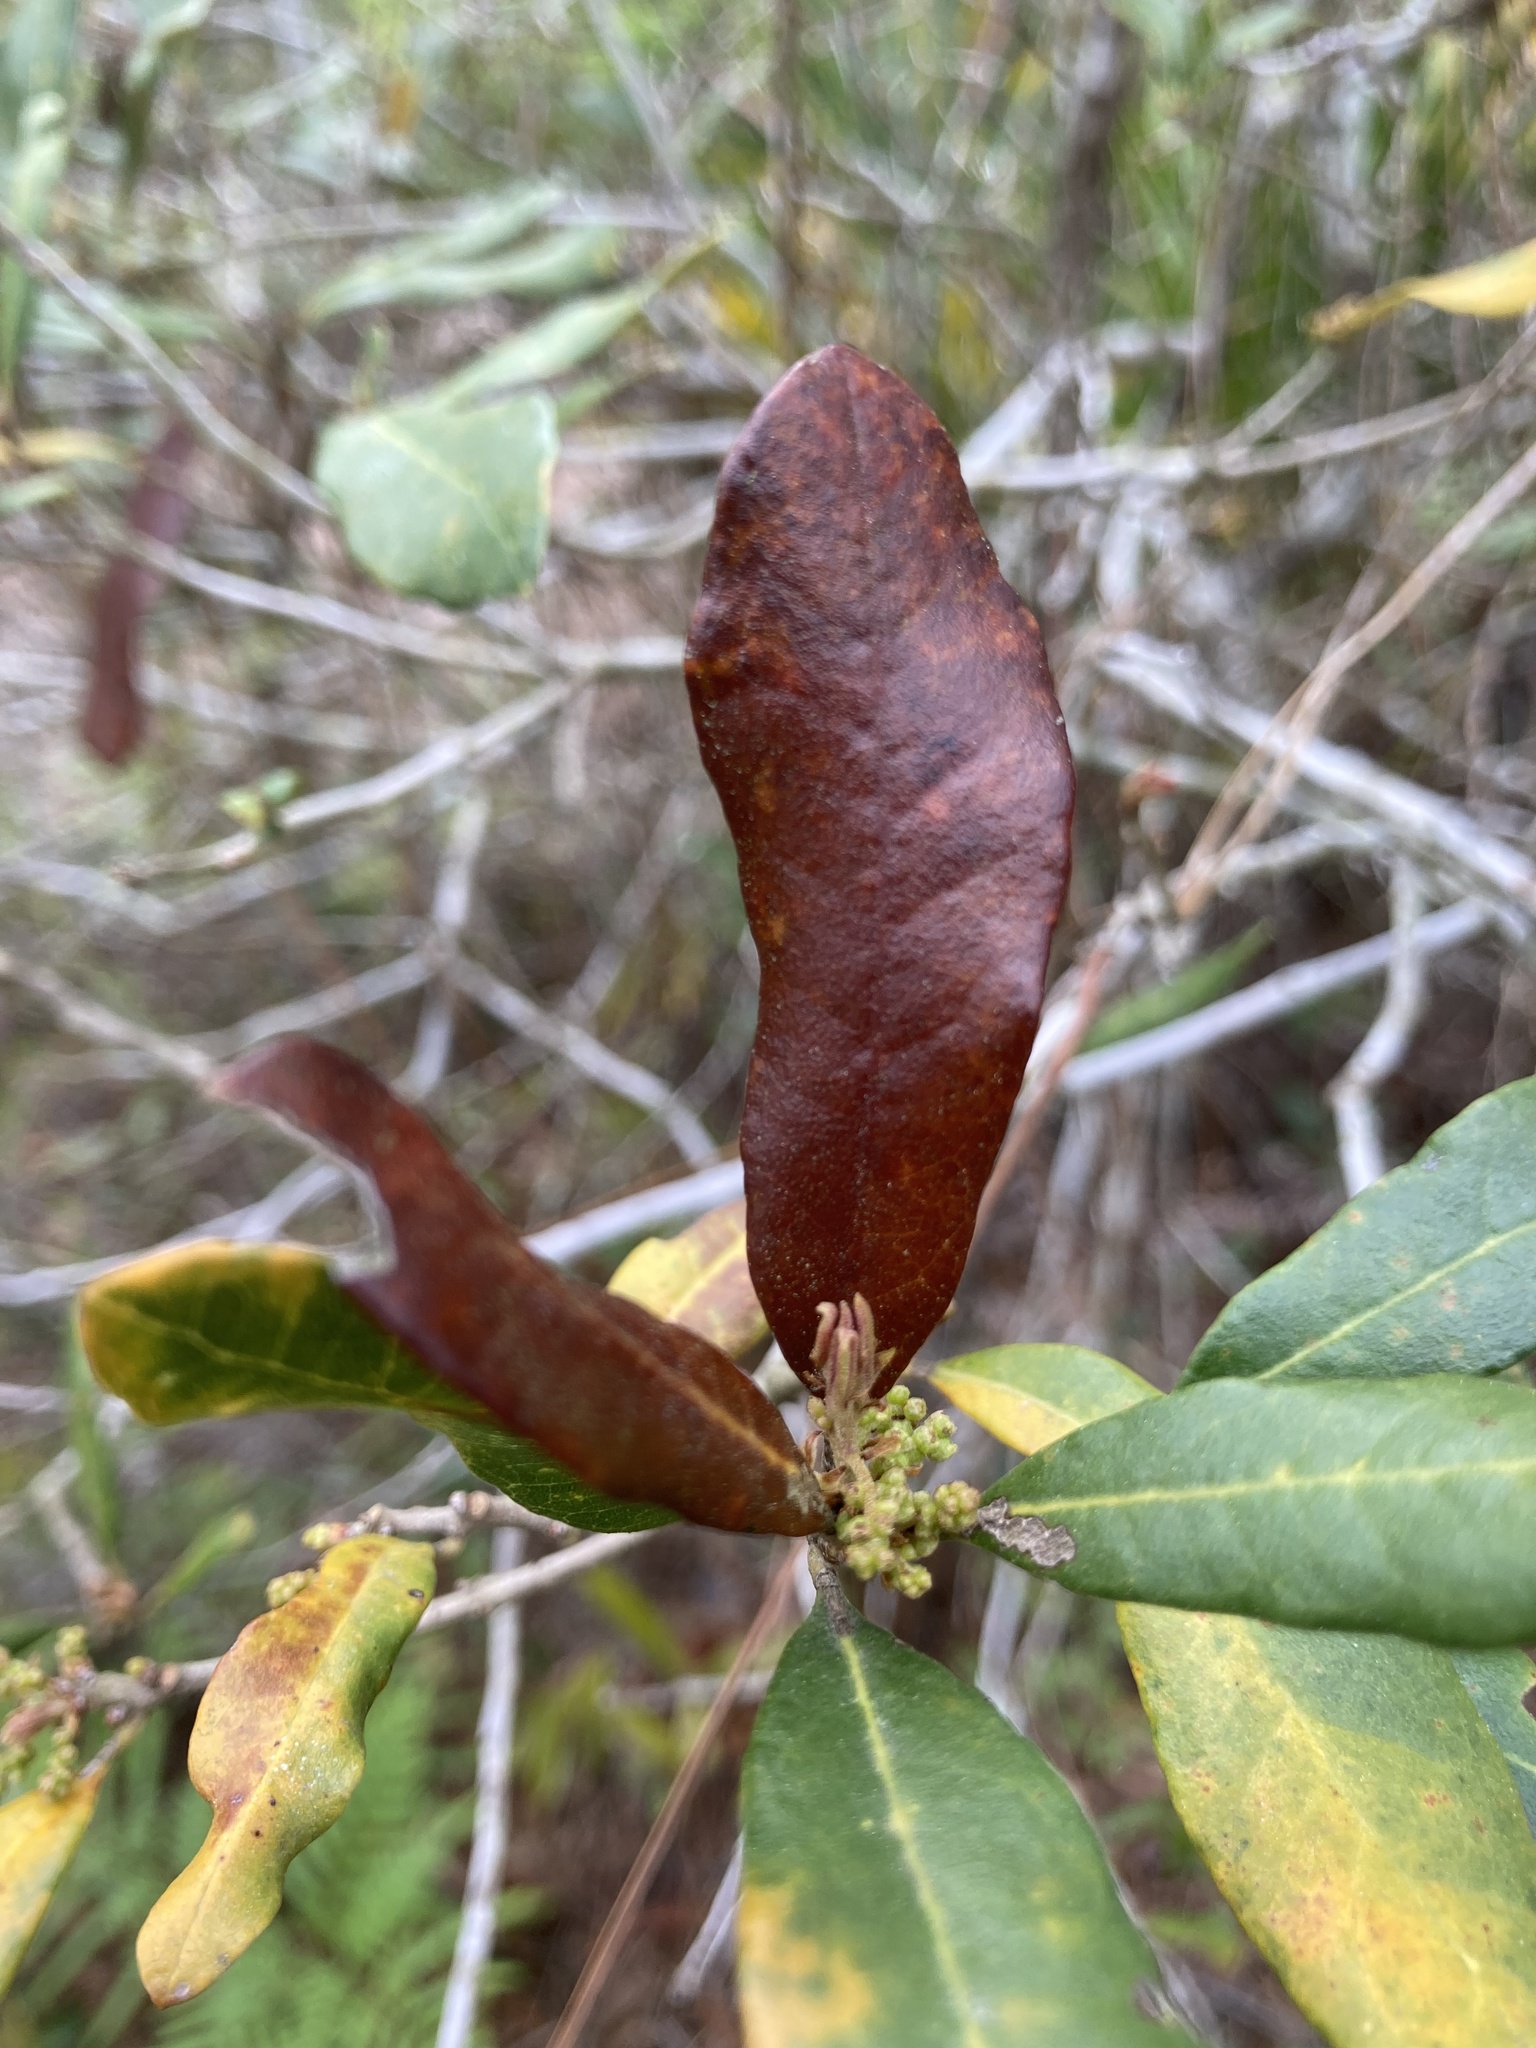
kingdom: Plantae
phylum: Tracheophyta
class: Magnoliopsida
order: Fagales
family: Myricaceae
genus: Morella
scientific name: Morella caroliniensis
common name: Evergreen bayberry
